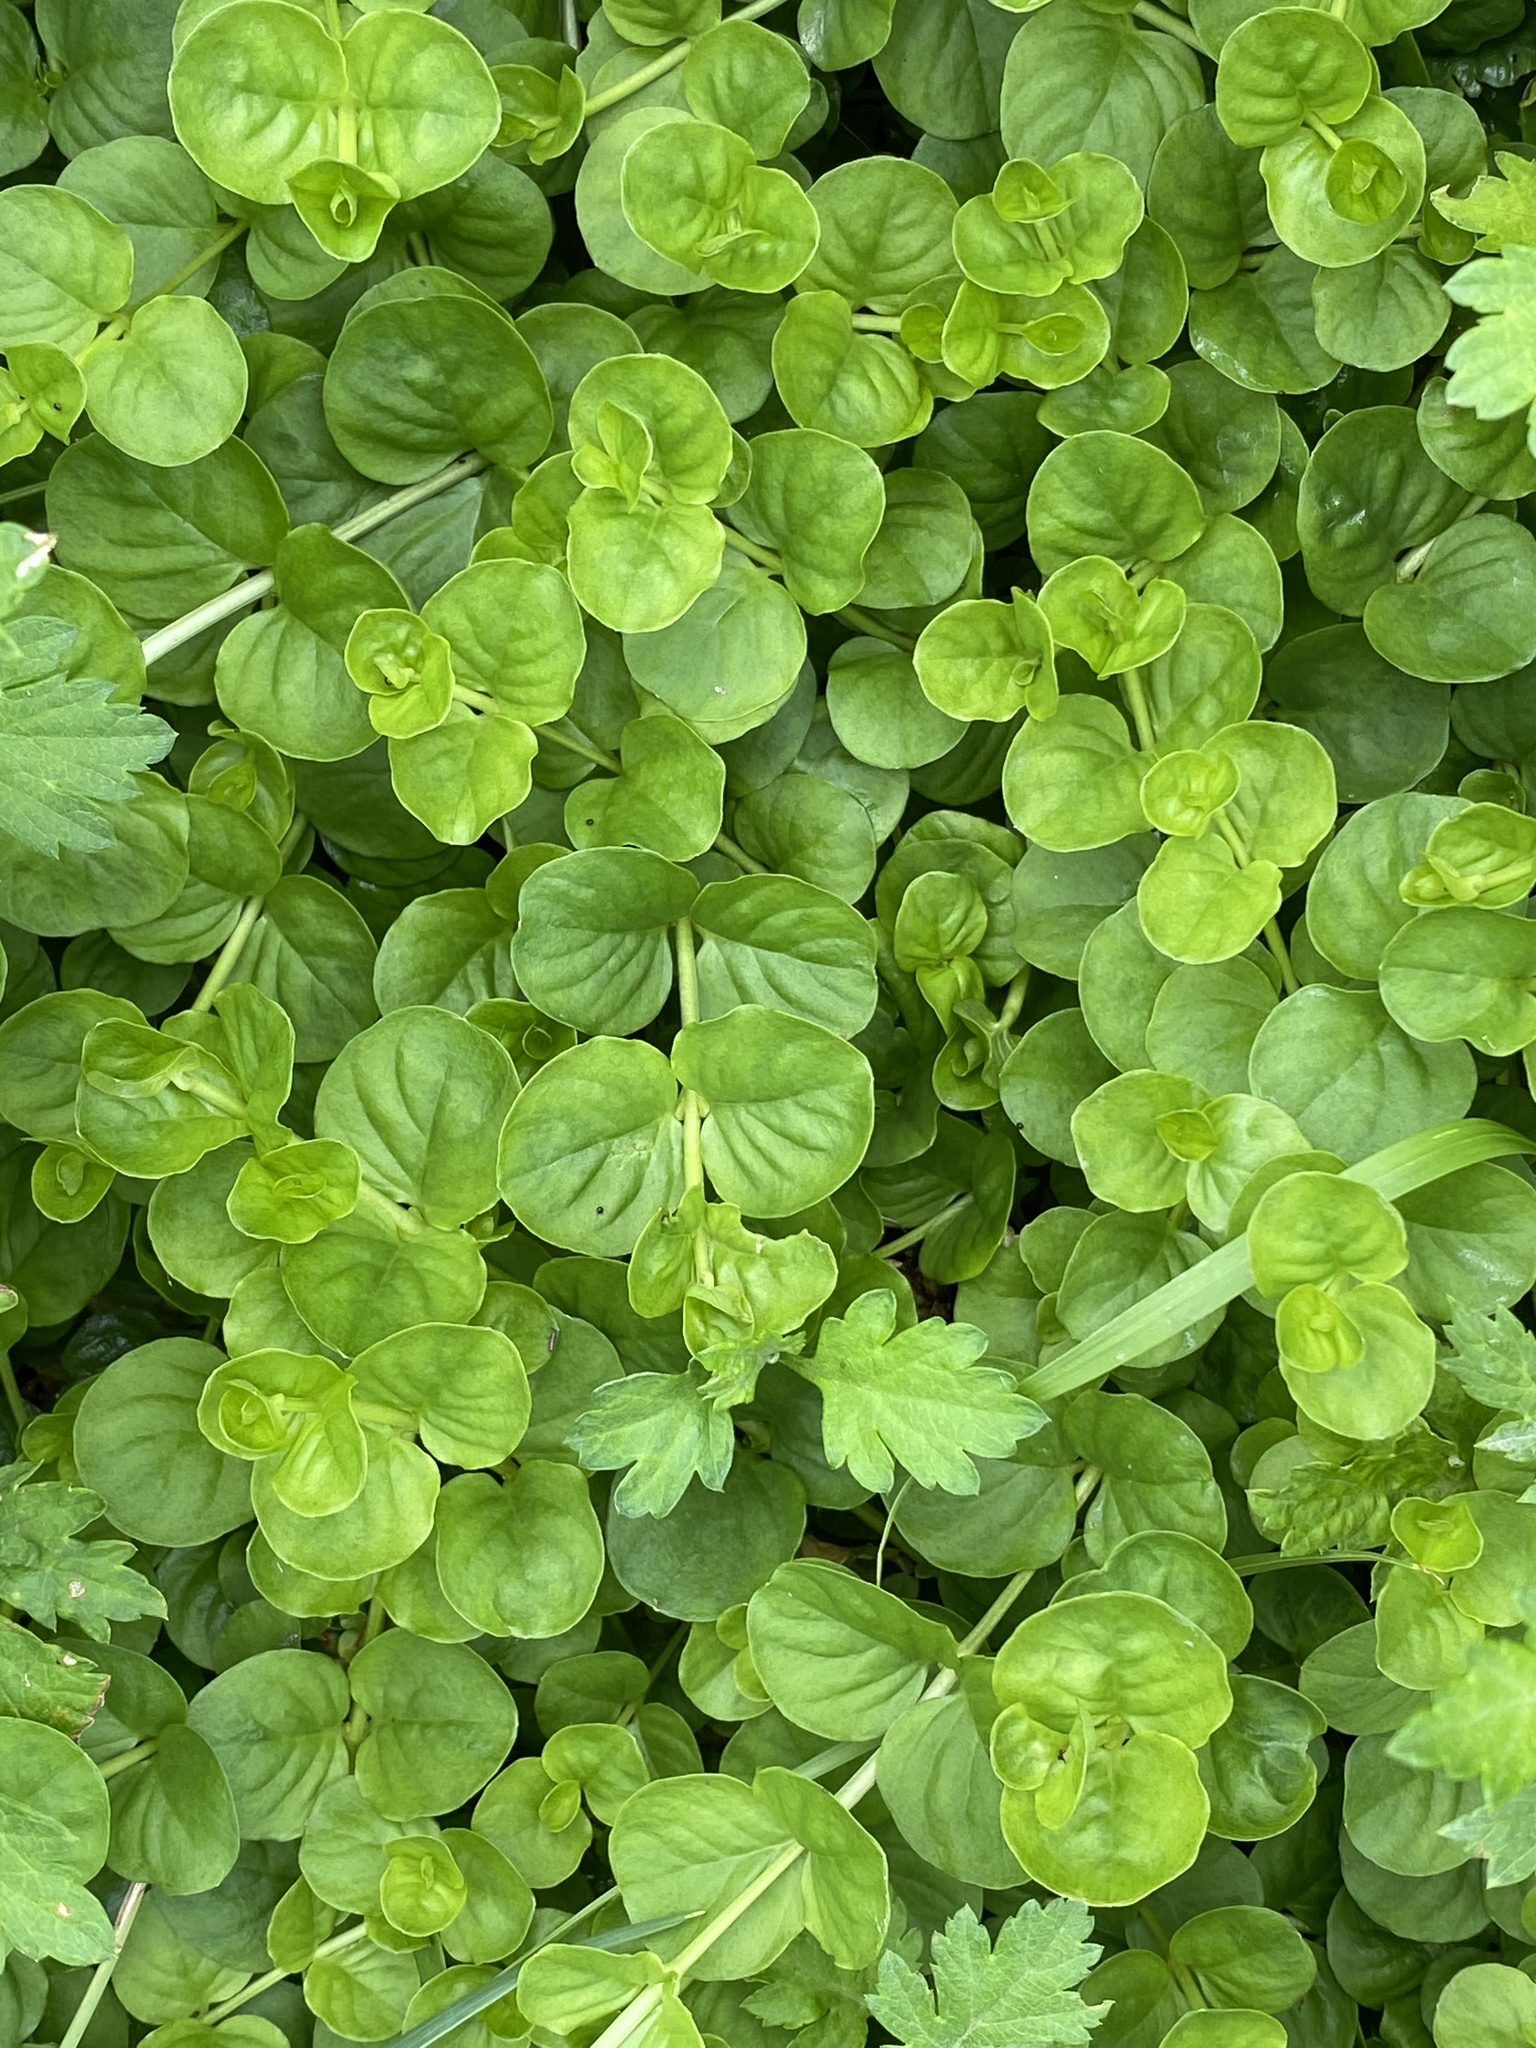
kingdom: Plantae
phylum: Tracheophyta
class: Magnoliopsida
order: Ericales
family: Primulaceae
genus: Lysimachia
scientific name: Lysimachia nummularia
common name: Moneywort
